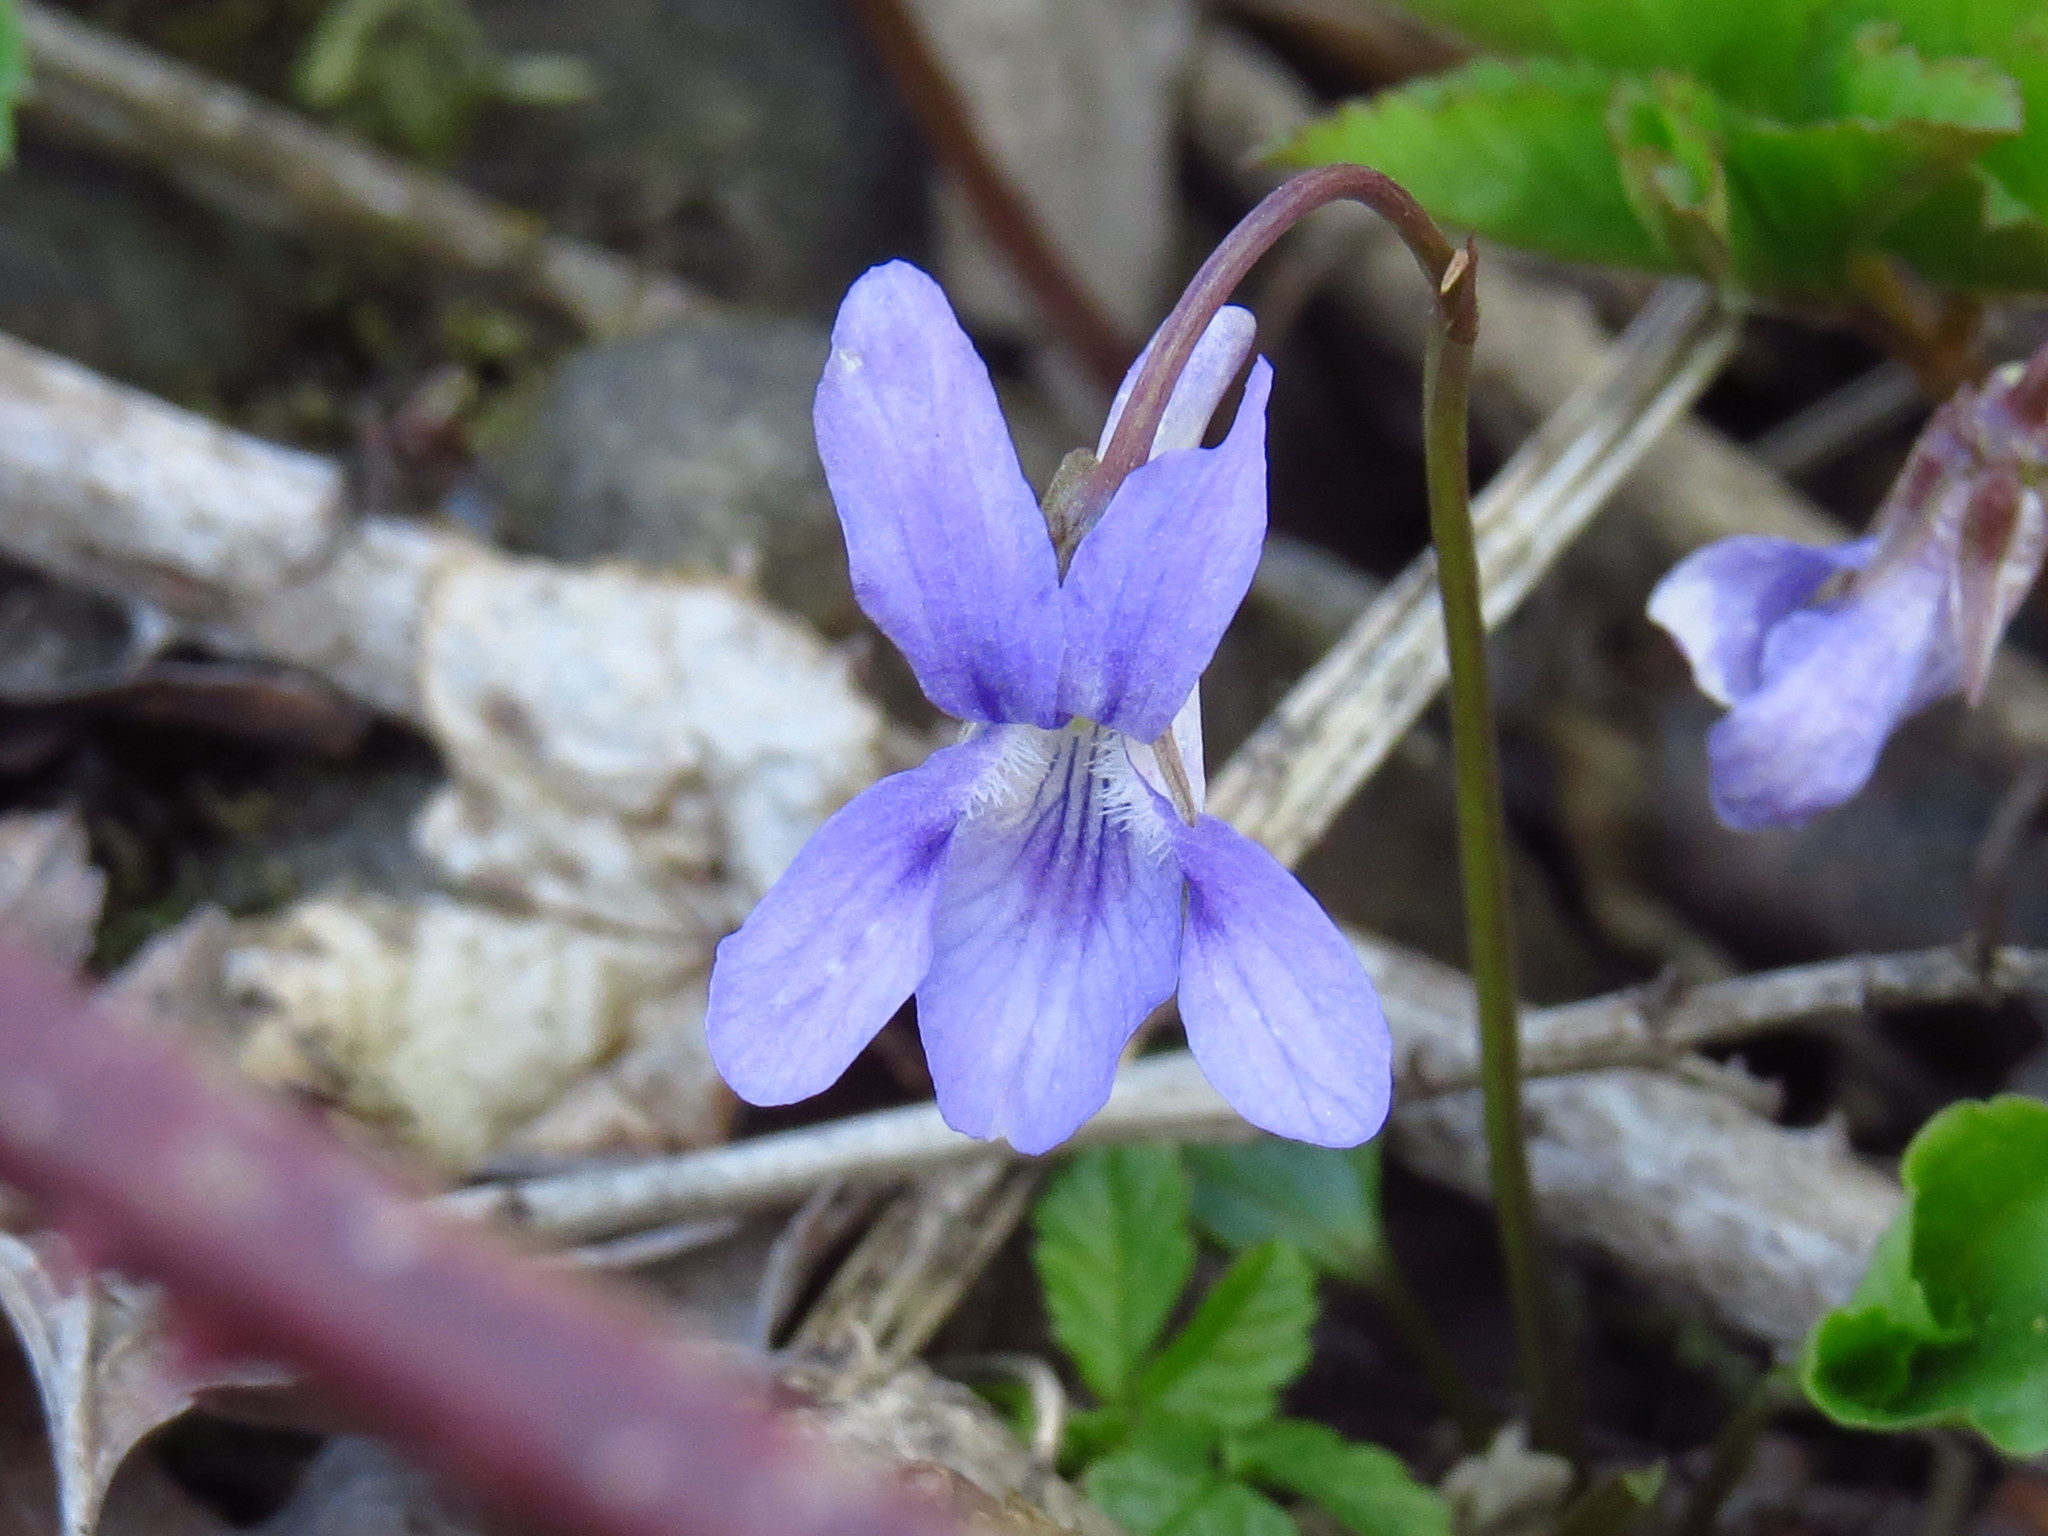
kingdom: Plantae
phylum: Tracheophyta
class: Magnoliopsida
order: Malpighiales
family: Violaceae
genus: Viola
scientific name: Viola reichenbachiana
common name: Early dog-violet
